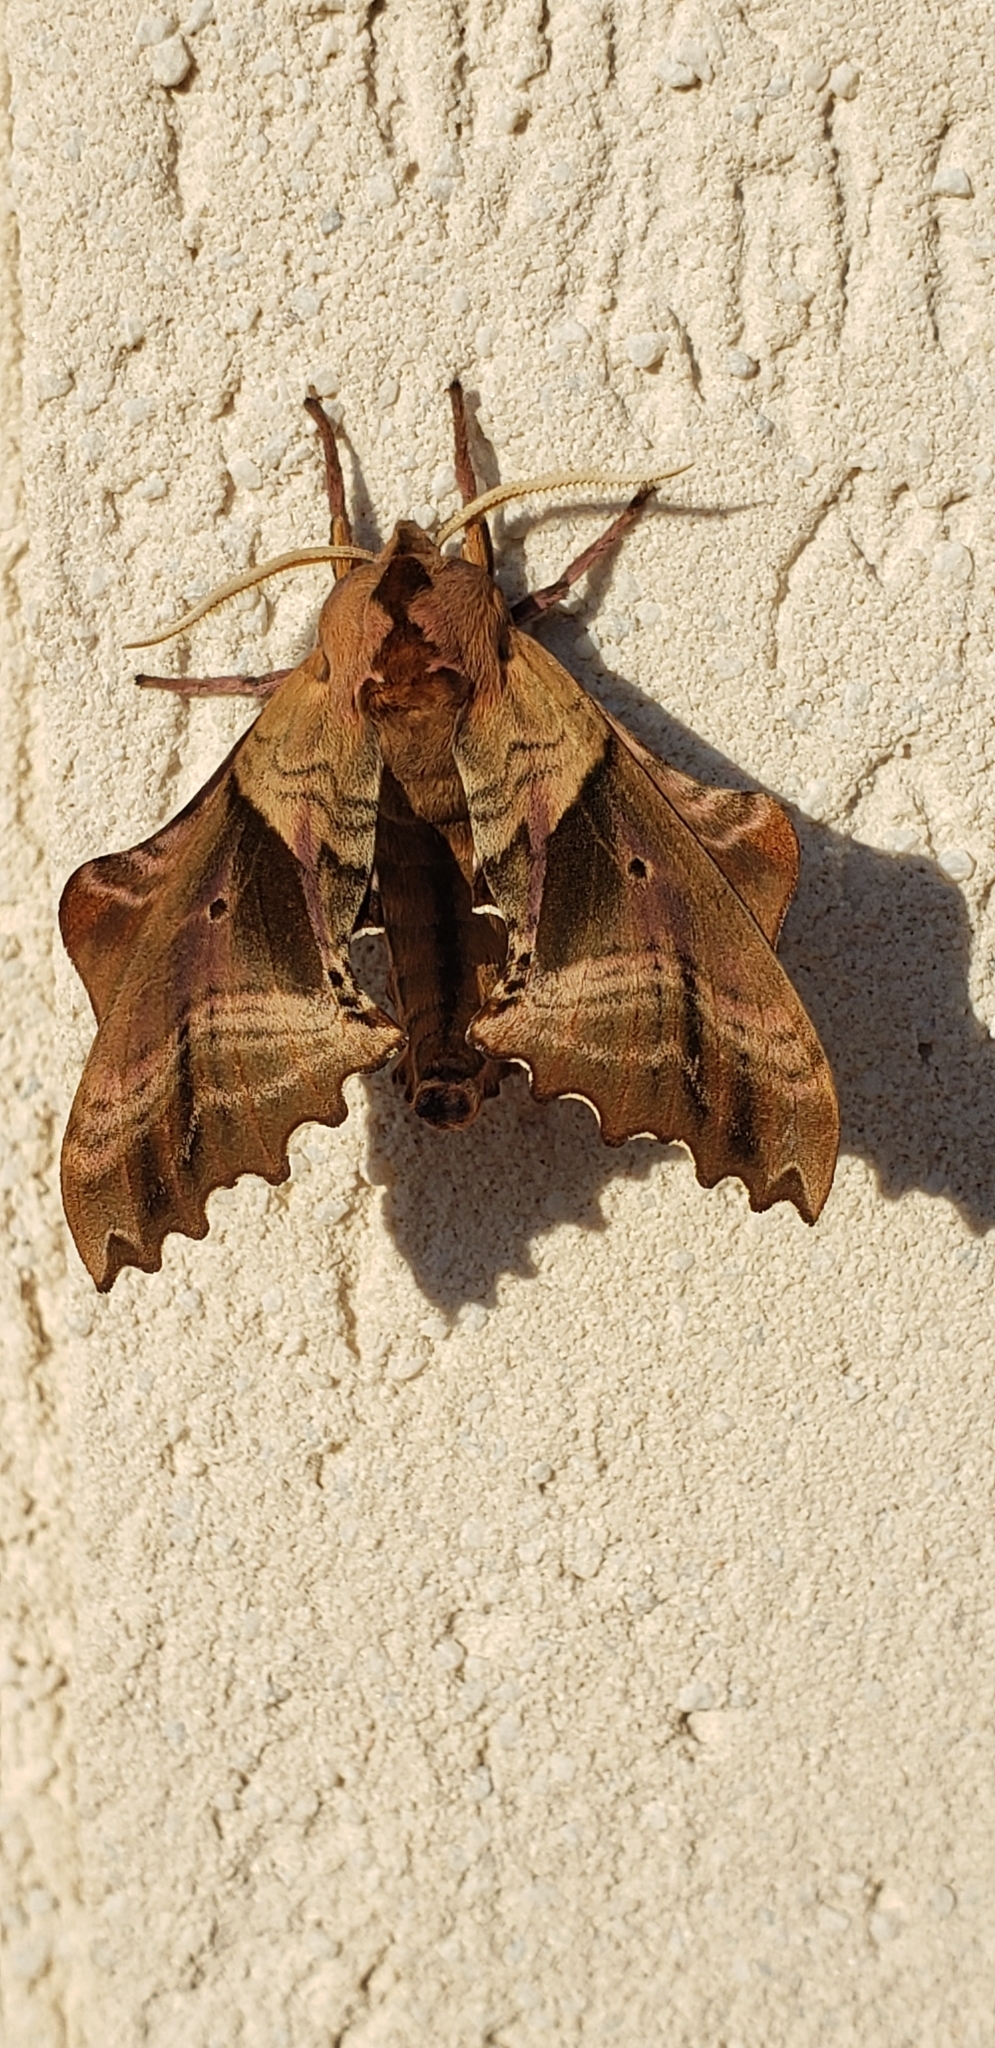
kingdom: Animalia
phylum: Arthropoda
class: Insecta
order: Lepidoptera
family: Sphingidae
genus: Paonias
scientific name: Paonias excaecata
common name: Blind-eyed sphinx
